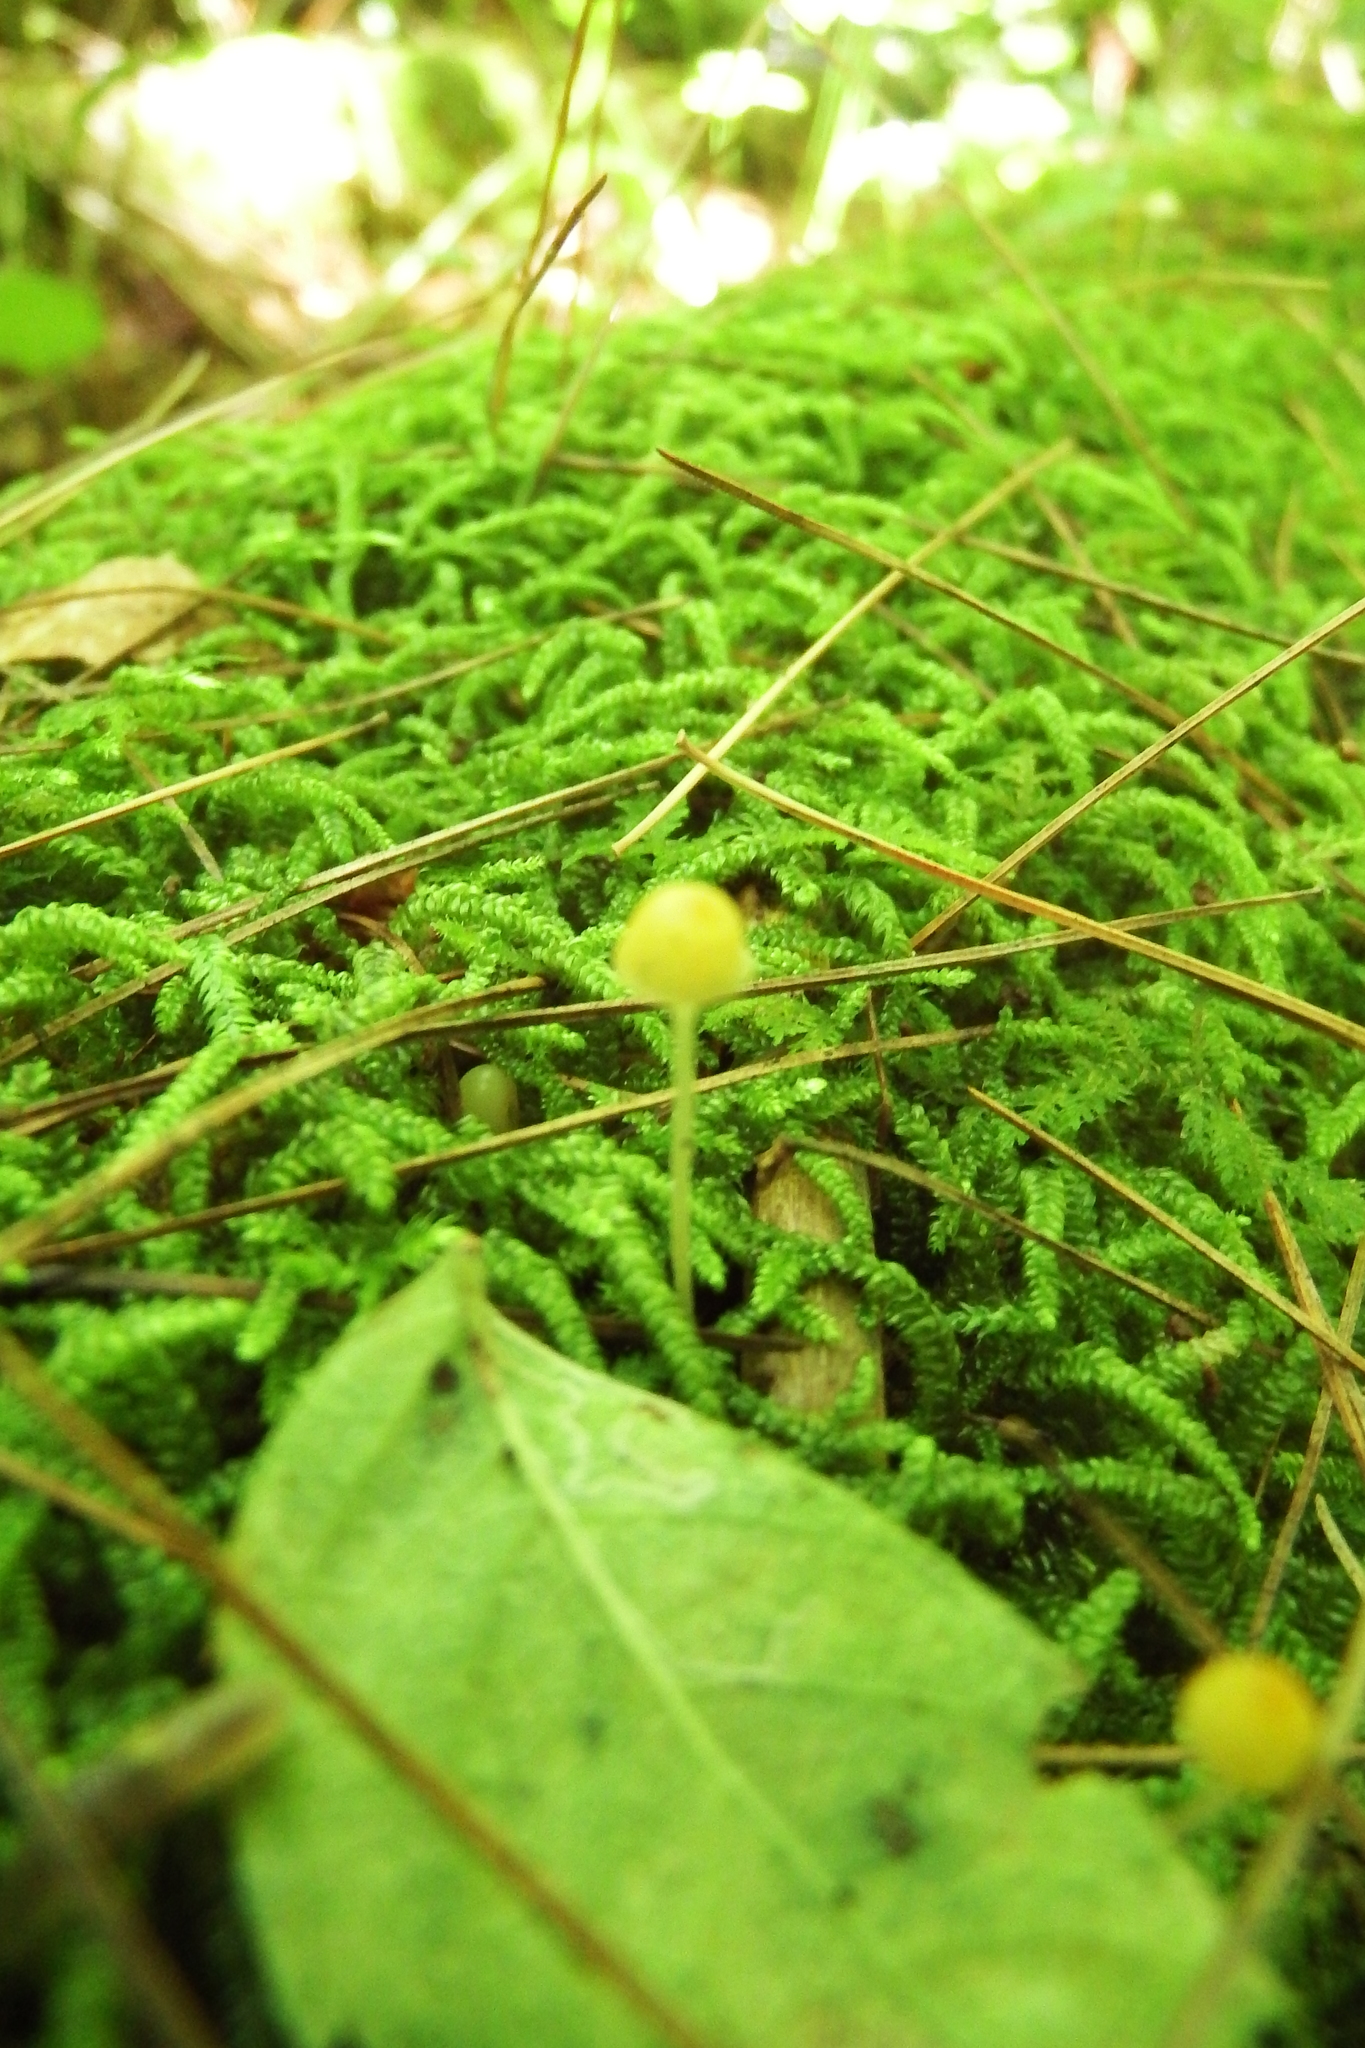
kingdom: Fungi
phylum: Basidiomycota
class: Agaricomycetes
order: Hymenochaetales
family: Rickenellaceae
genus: Rickenella
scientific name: Rickenella fibula
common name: Orange mosscap
